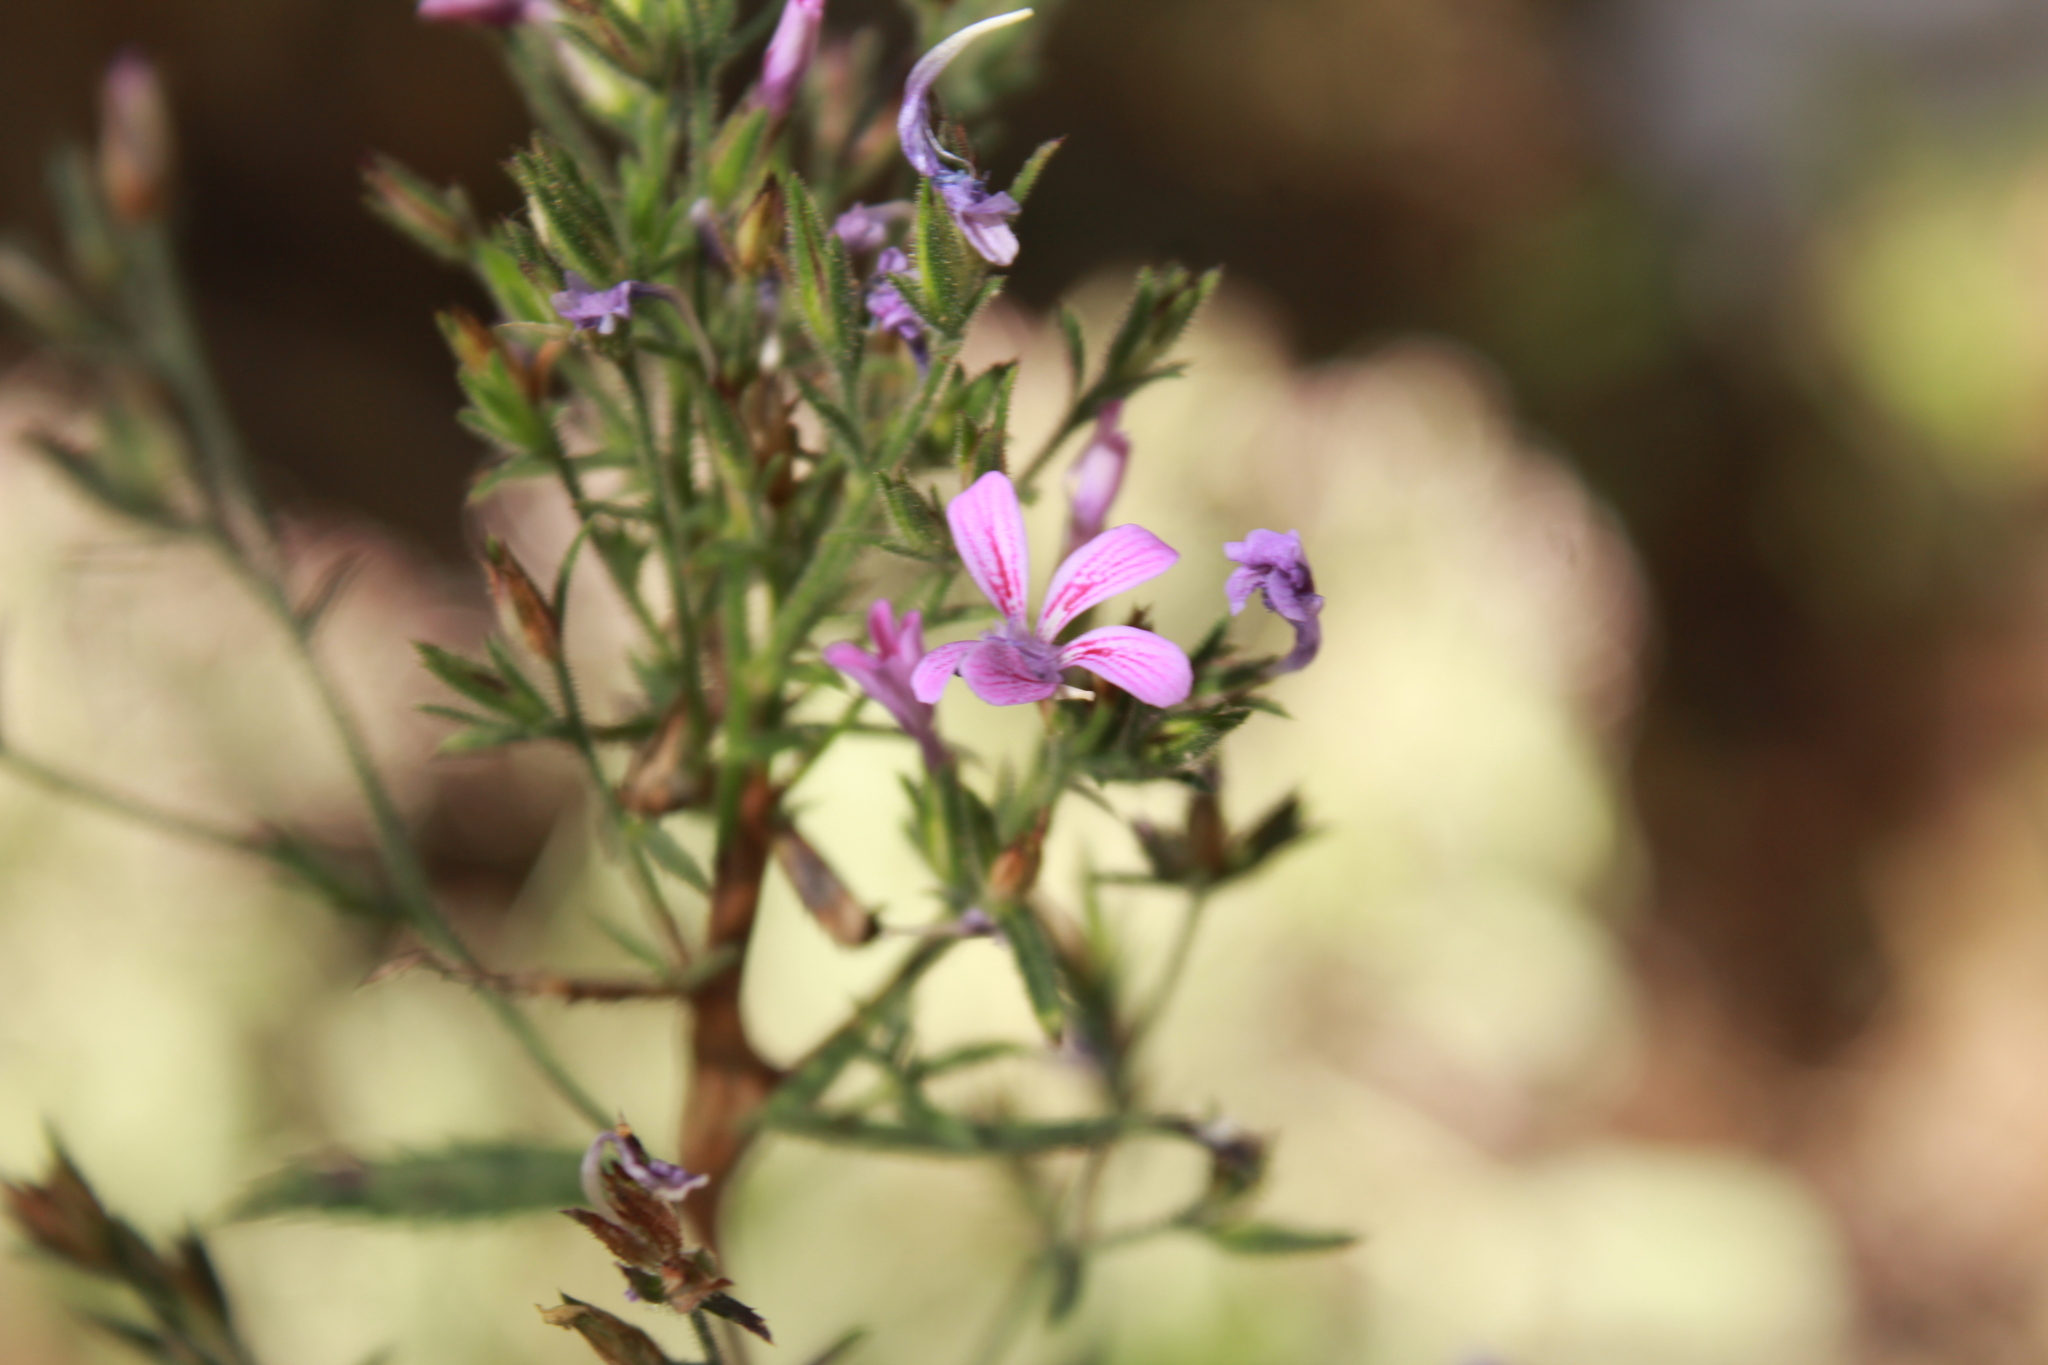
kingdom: Plantae
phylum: Tracheophyta
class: Magnoliopsida
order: Ericales
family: Polemoniaceae
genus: Loeselia
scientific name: Loeselia glandulosa
